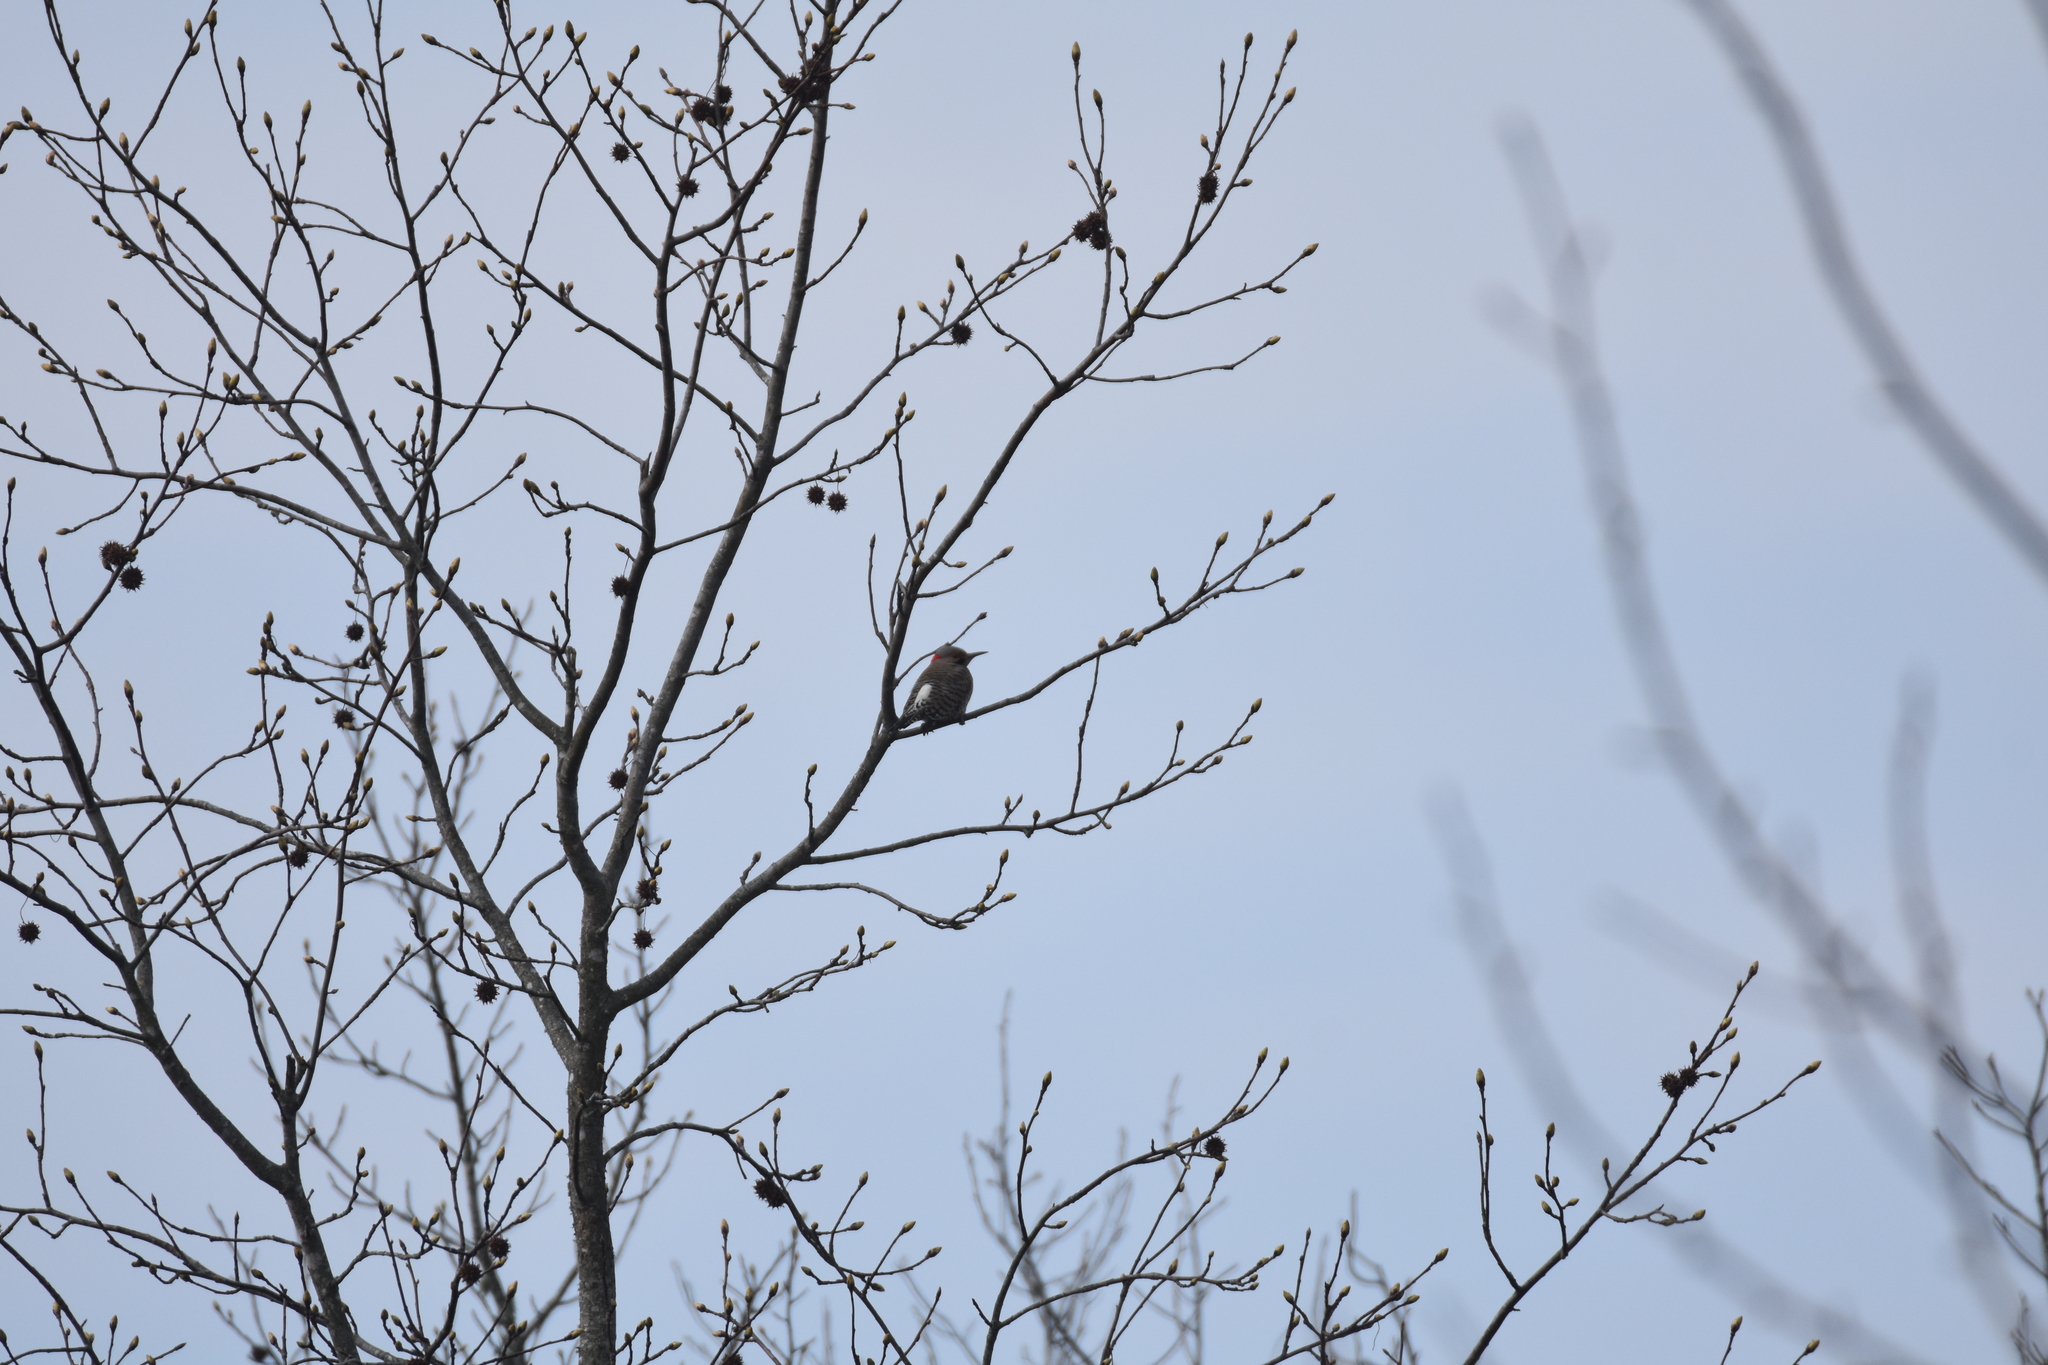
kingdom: Animalia
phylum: Chordata
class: Aves
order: Piciformes
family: Picidae
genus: Colaptes
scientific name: Colaptes auratus
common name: Northern flicker
